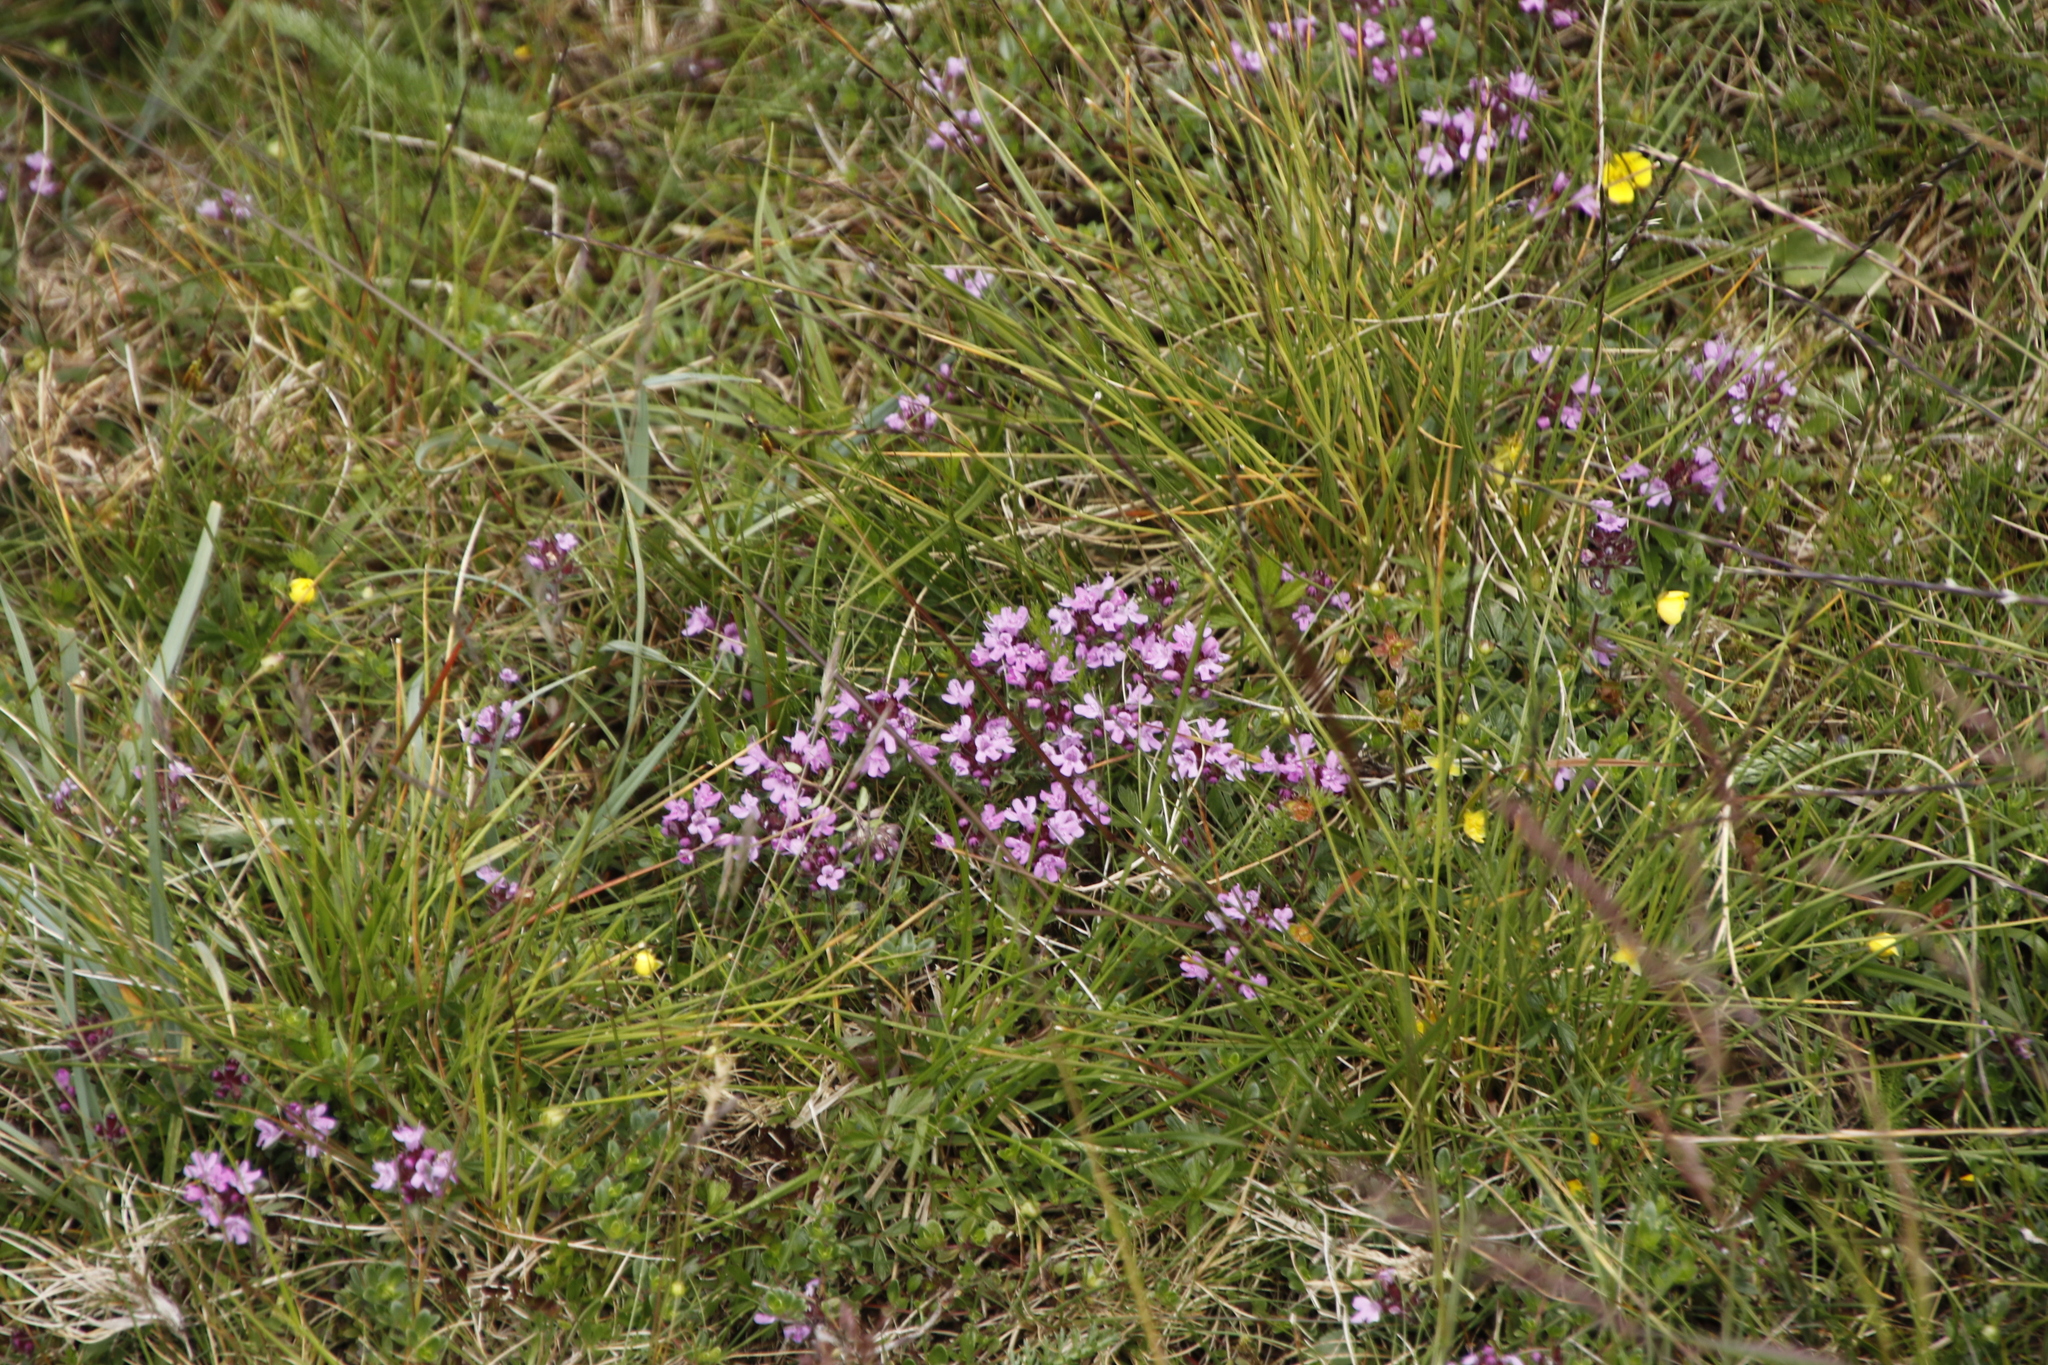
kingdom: Plantae
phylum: Tracheophyta
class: Magnoliopsida
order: Lamiales
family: Lamiaceae
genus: Thymus
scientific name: Thymus praecox
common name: Wild thyme
